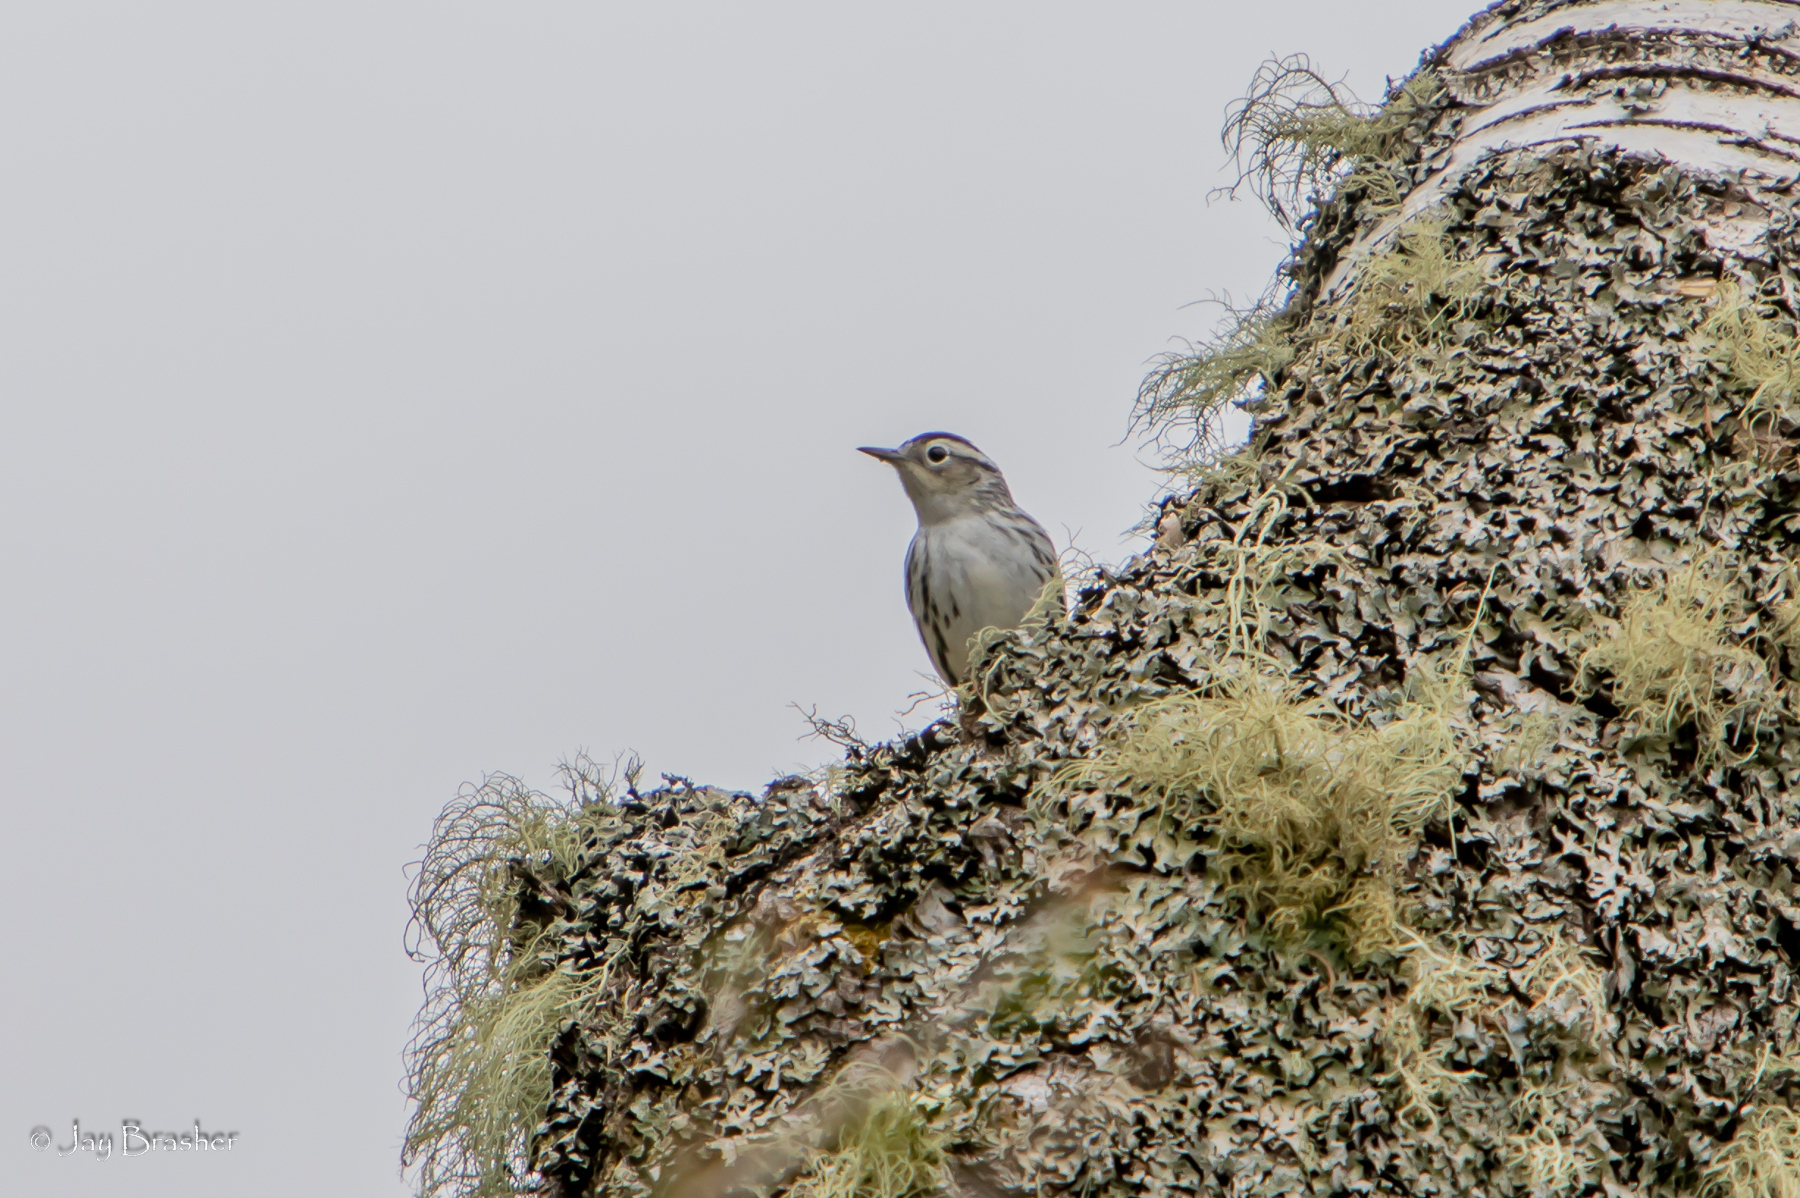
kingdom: Animalia
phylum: Chordata
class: Aves
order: Passeriformes
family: Parulidae
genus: Mniotilta
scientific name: Mniotilta varia
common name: Black-and-white warbler
